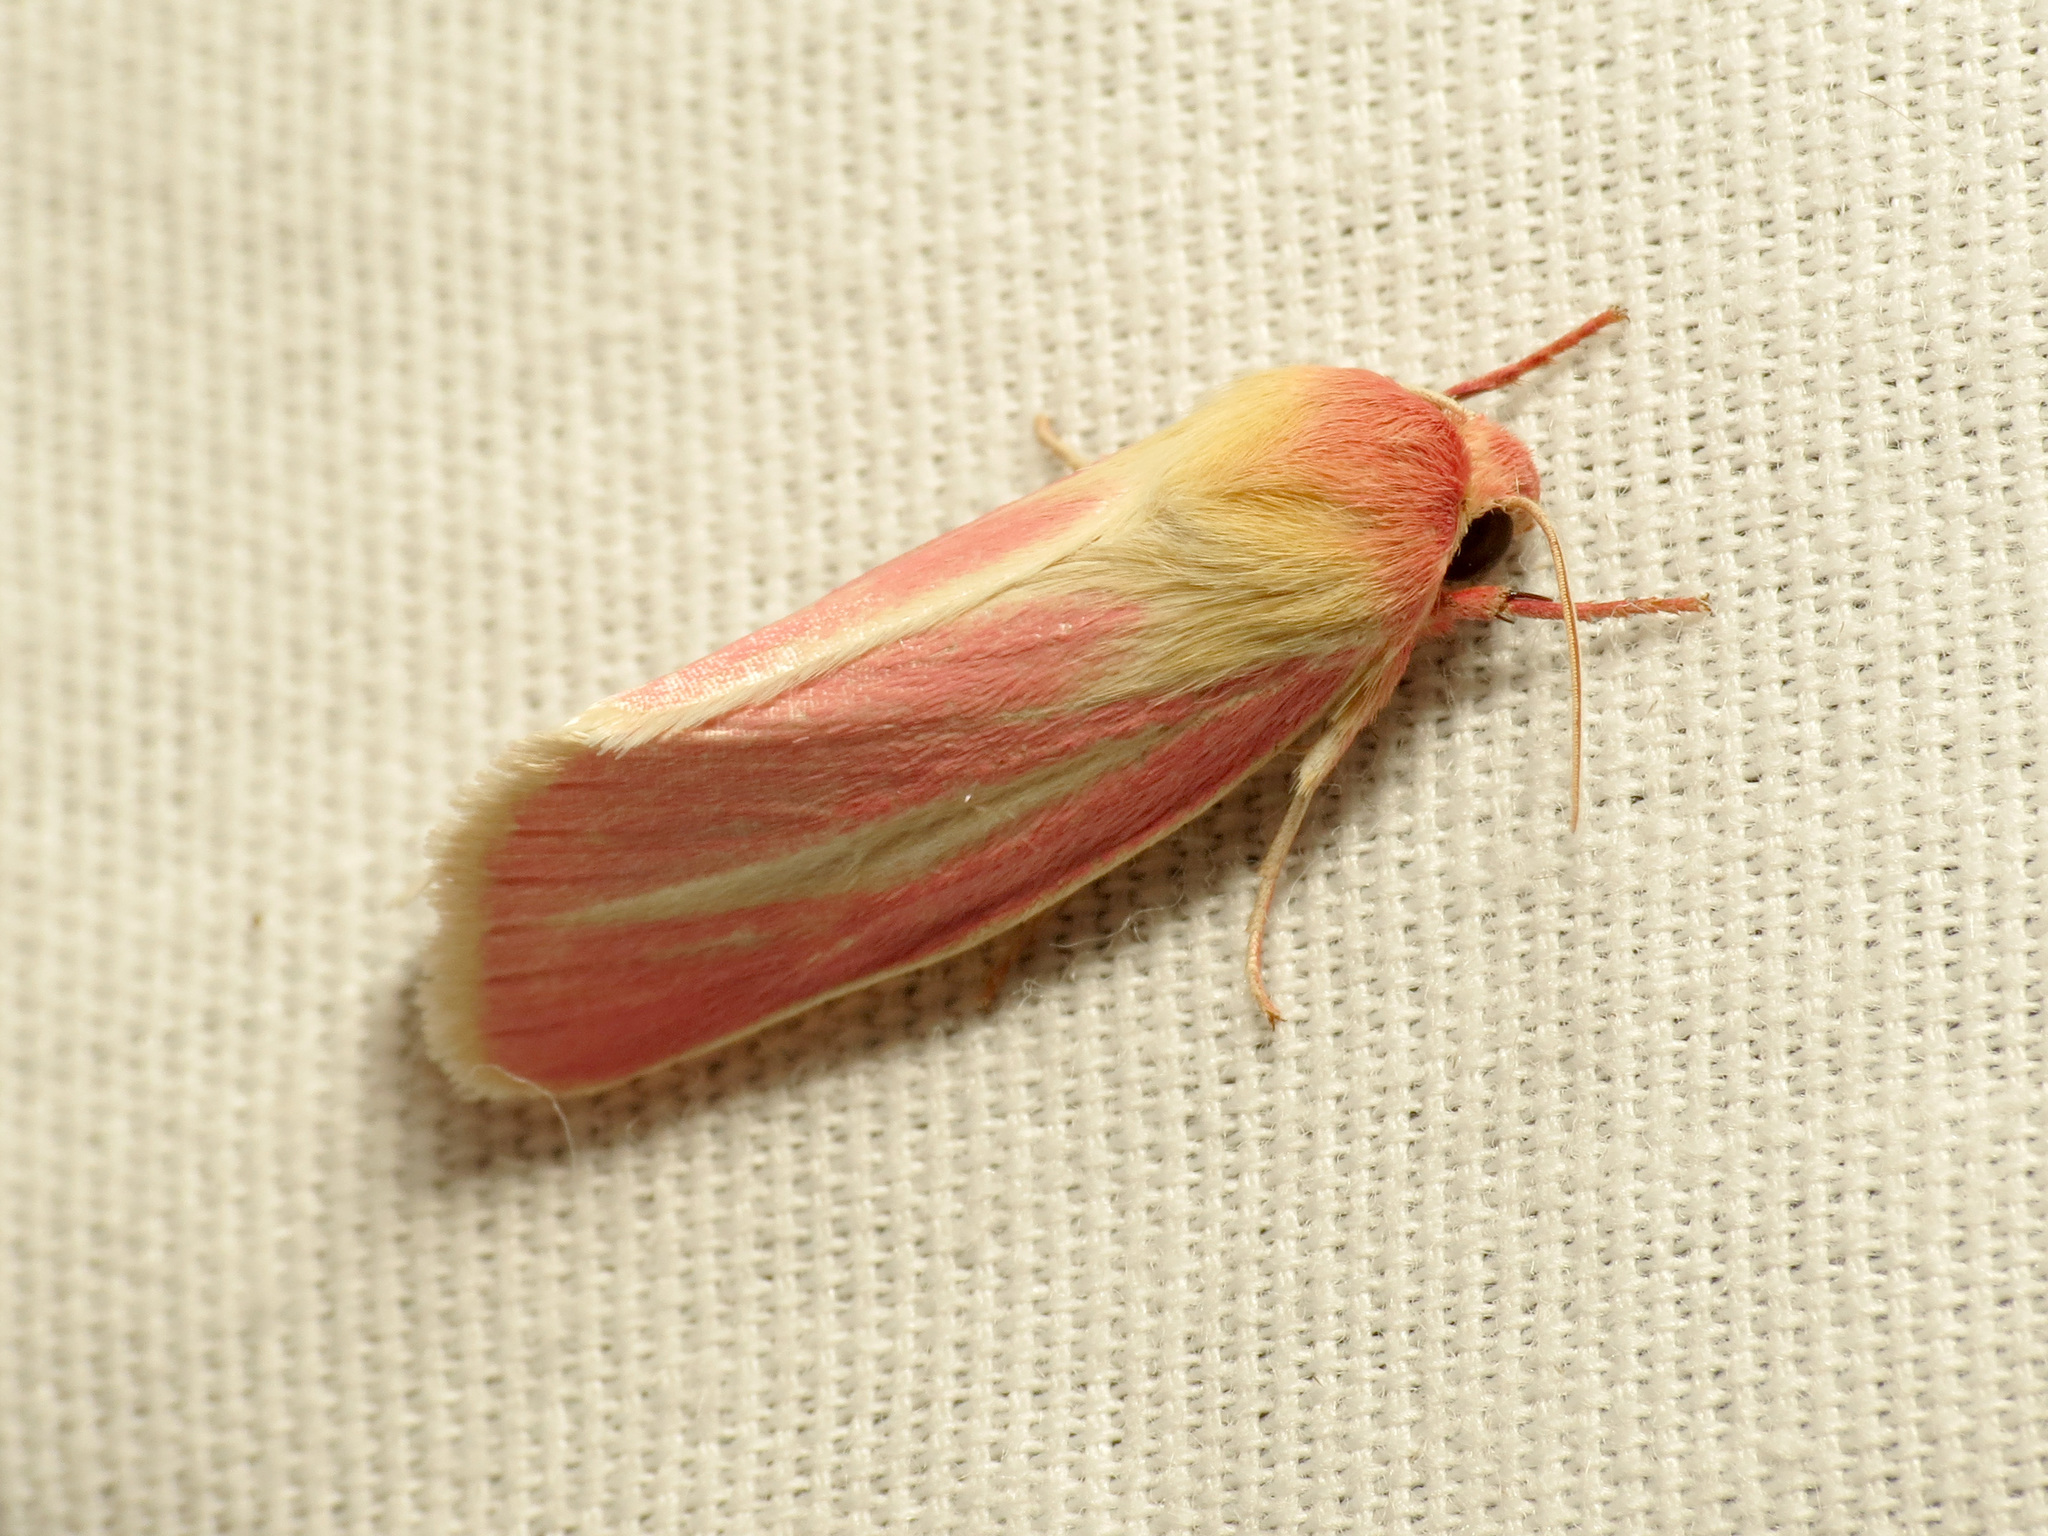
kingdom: Animalia
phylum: Arthropoda
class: Insecta
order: Lepidoptera
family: Noctuidae
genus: Heliocheilus
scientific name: Heliocheilus julia
